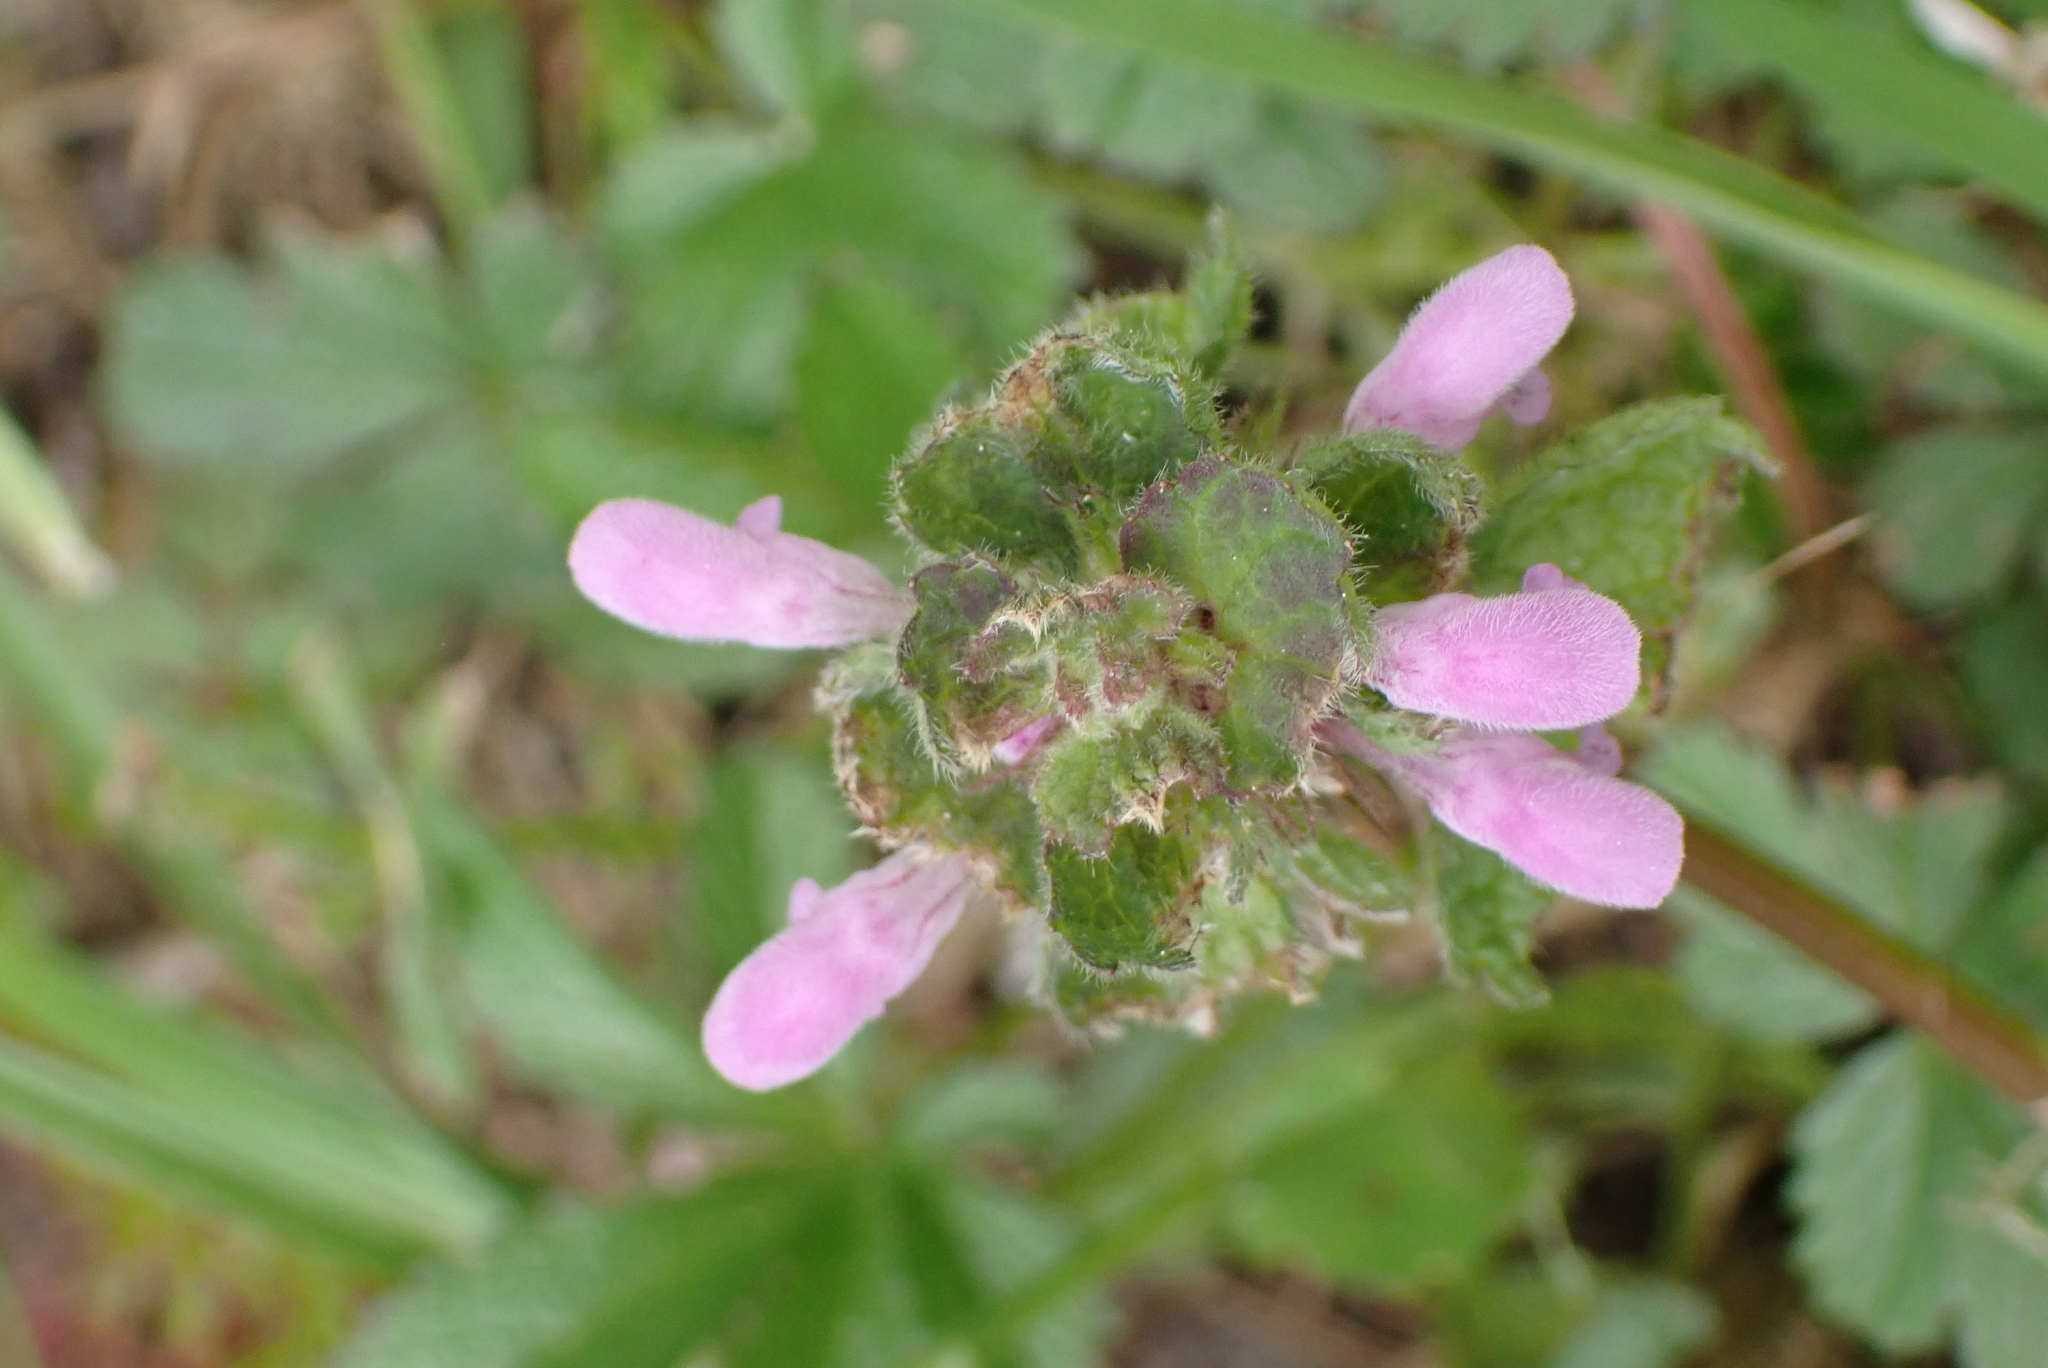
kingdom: Plantae
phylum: Tracheophyta
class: Magnoliopsida
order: Lamiales
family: Lamiaceae
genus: Lamium
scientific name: Lamium purpureum
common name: Red dead-nettle
